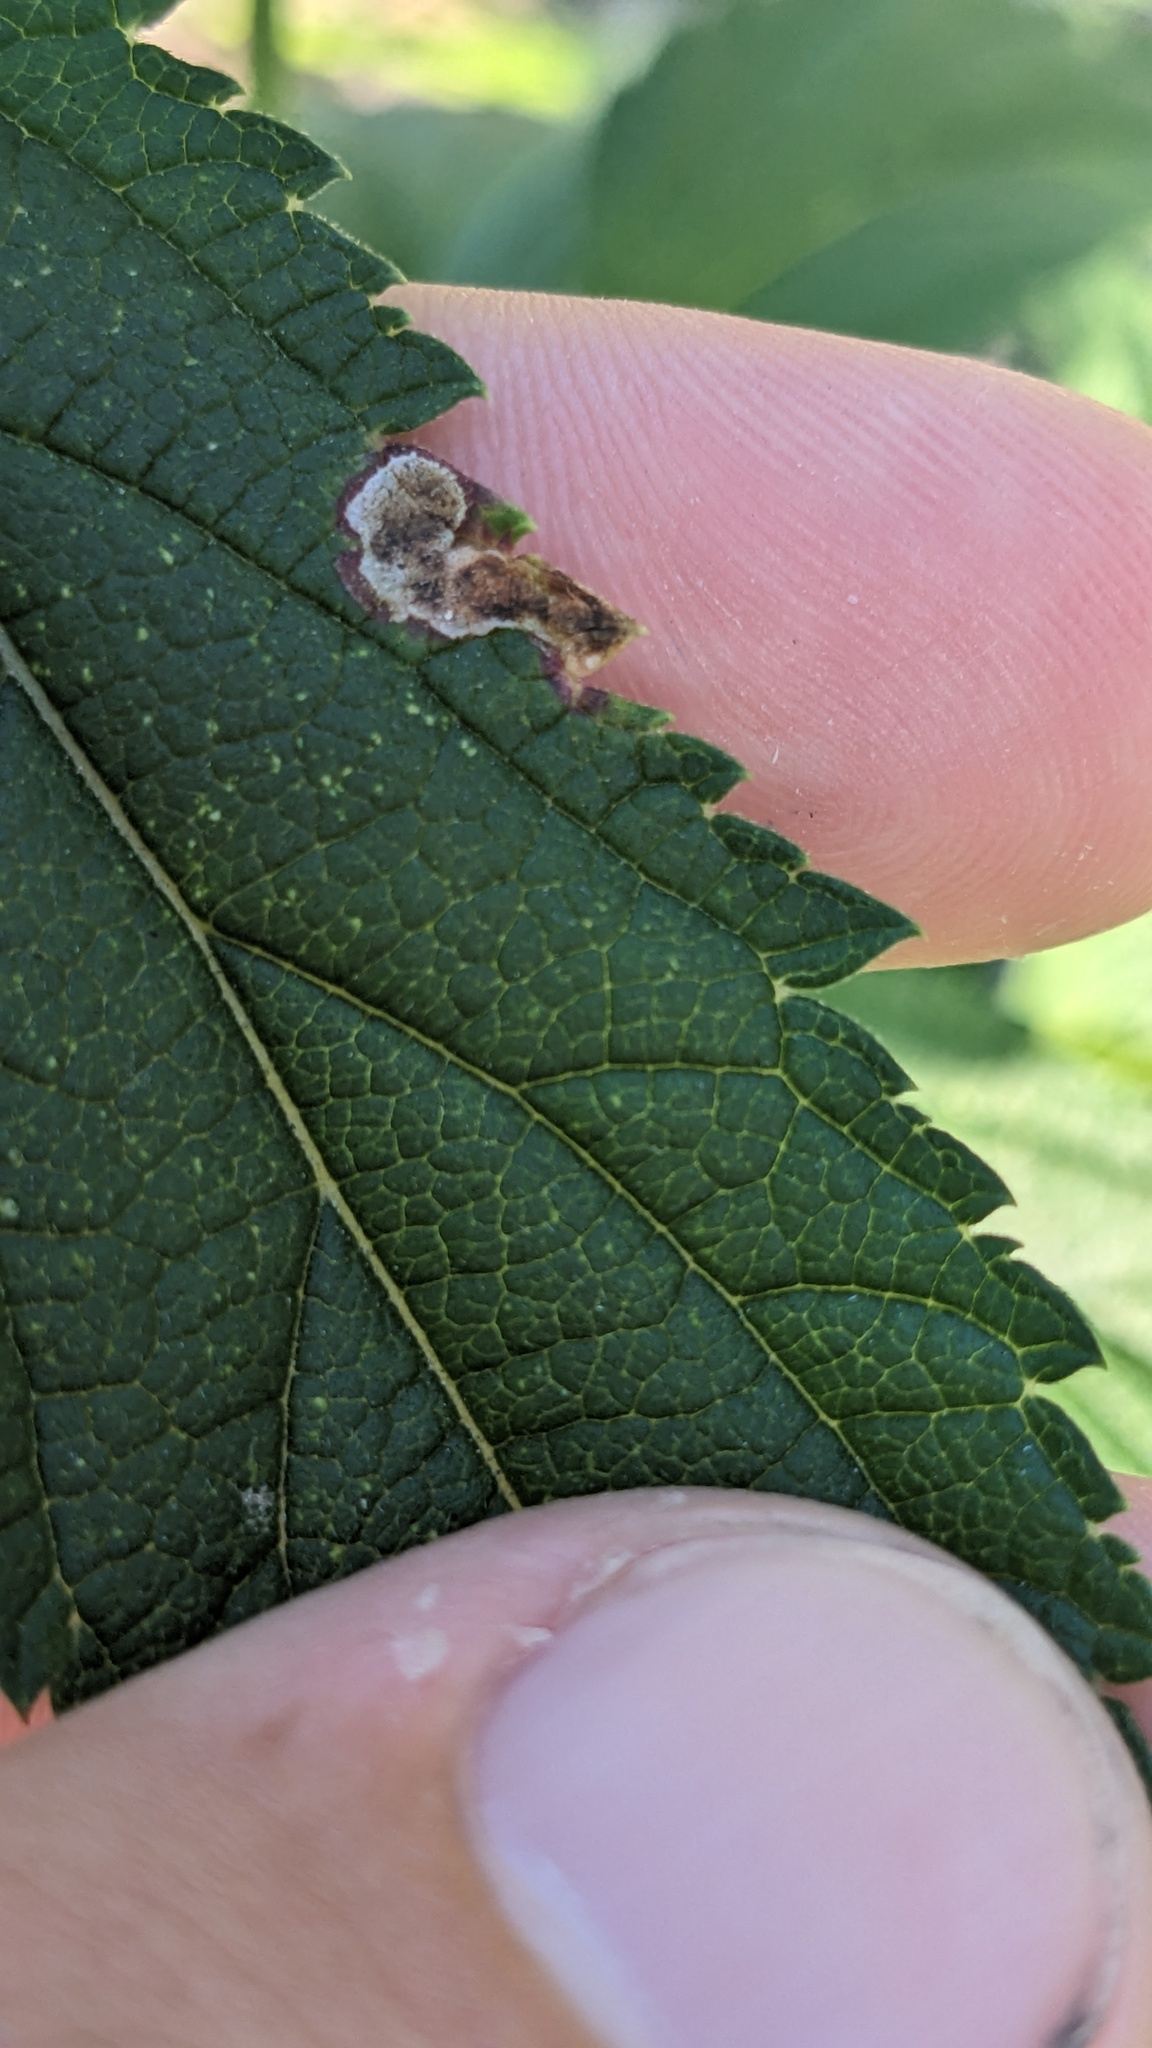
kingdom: Animalia
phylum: Arthropoda
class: Insecta
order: Diptera
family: Agromyzidae
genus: Calycomyza
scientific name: Calycomyza verbenae
